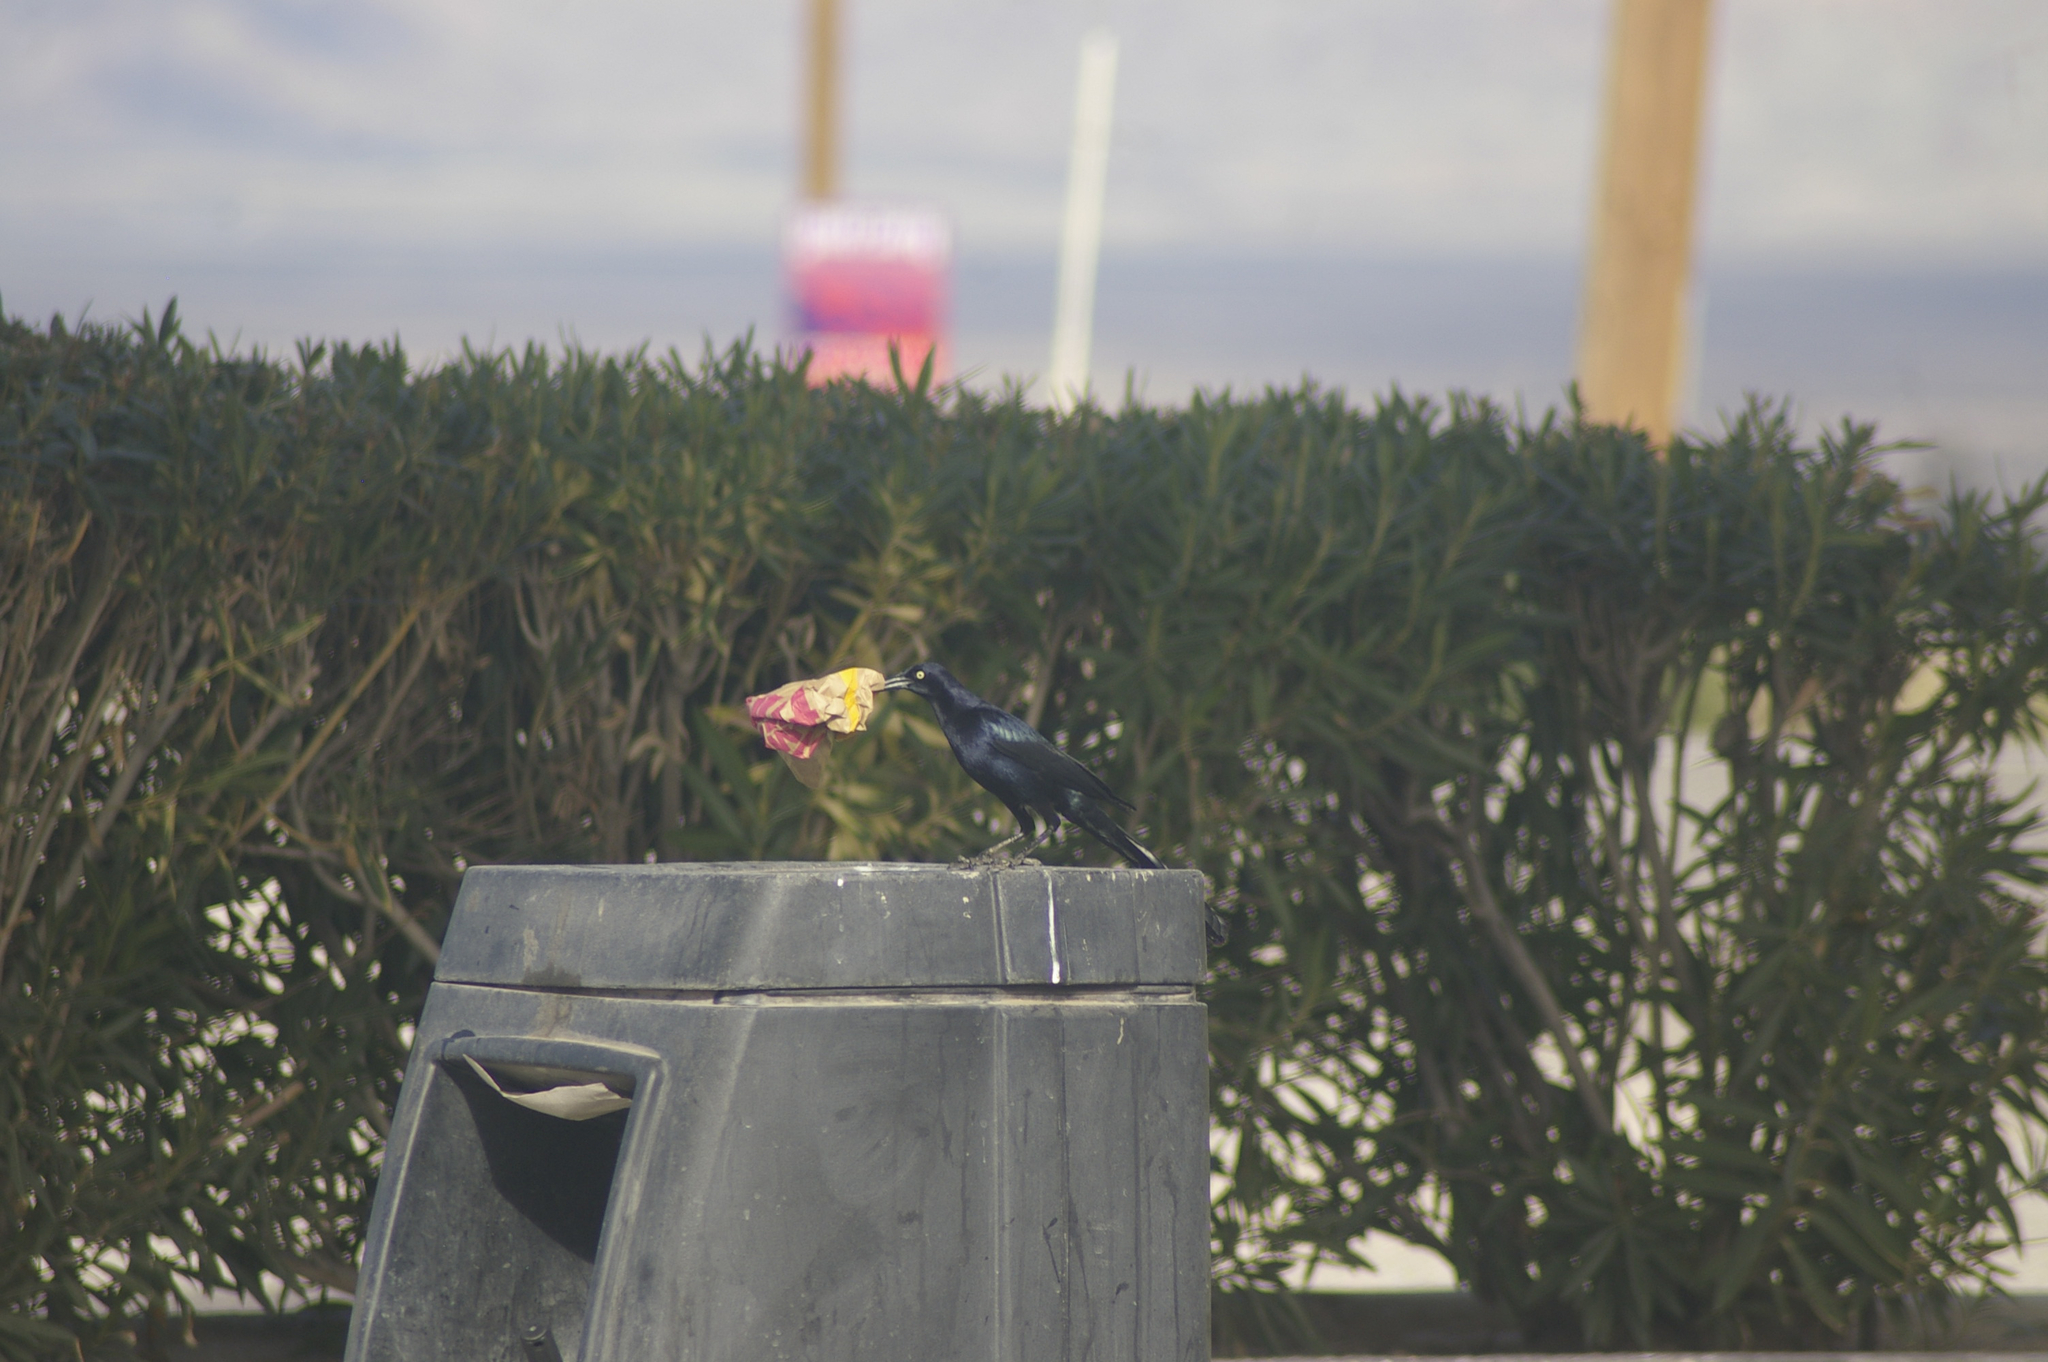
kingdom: Animalia
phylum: Chordata
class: Aves
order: Passeriformes
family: Icteridae
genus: Quiscalus
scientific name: Quiscalus mexicanus
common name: Great-tailed grackle
